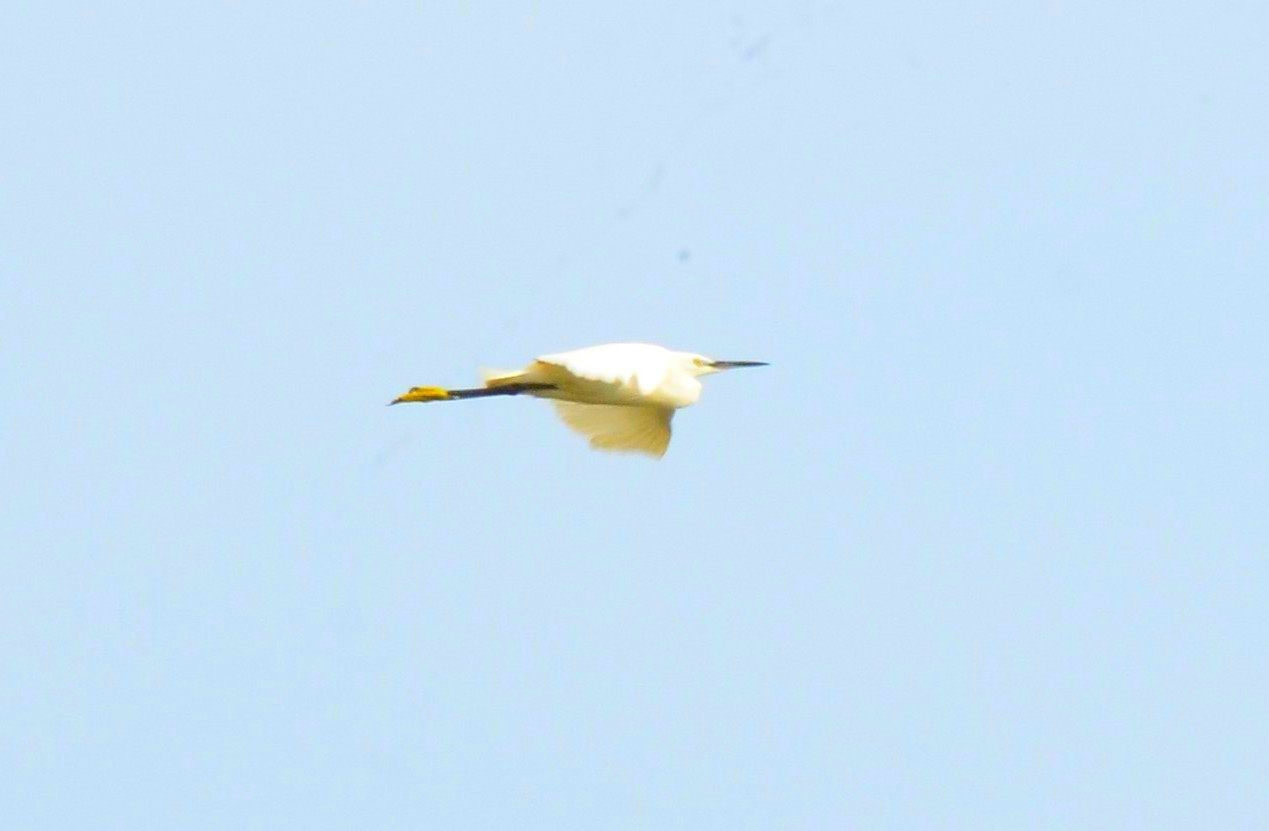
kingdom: Animalia
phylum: Chordata
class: Aves
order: Pelecaniformes
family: Ardeidae
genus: Egretta
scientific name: Egretta garzetta
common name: Little egret
